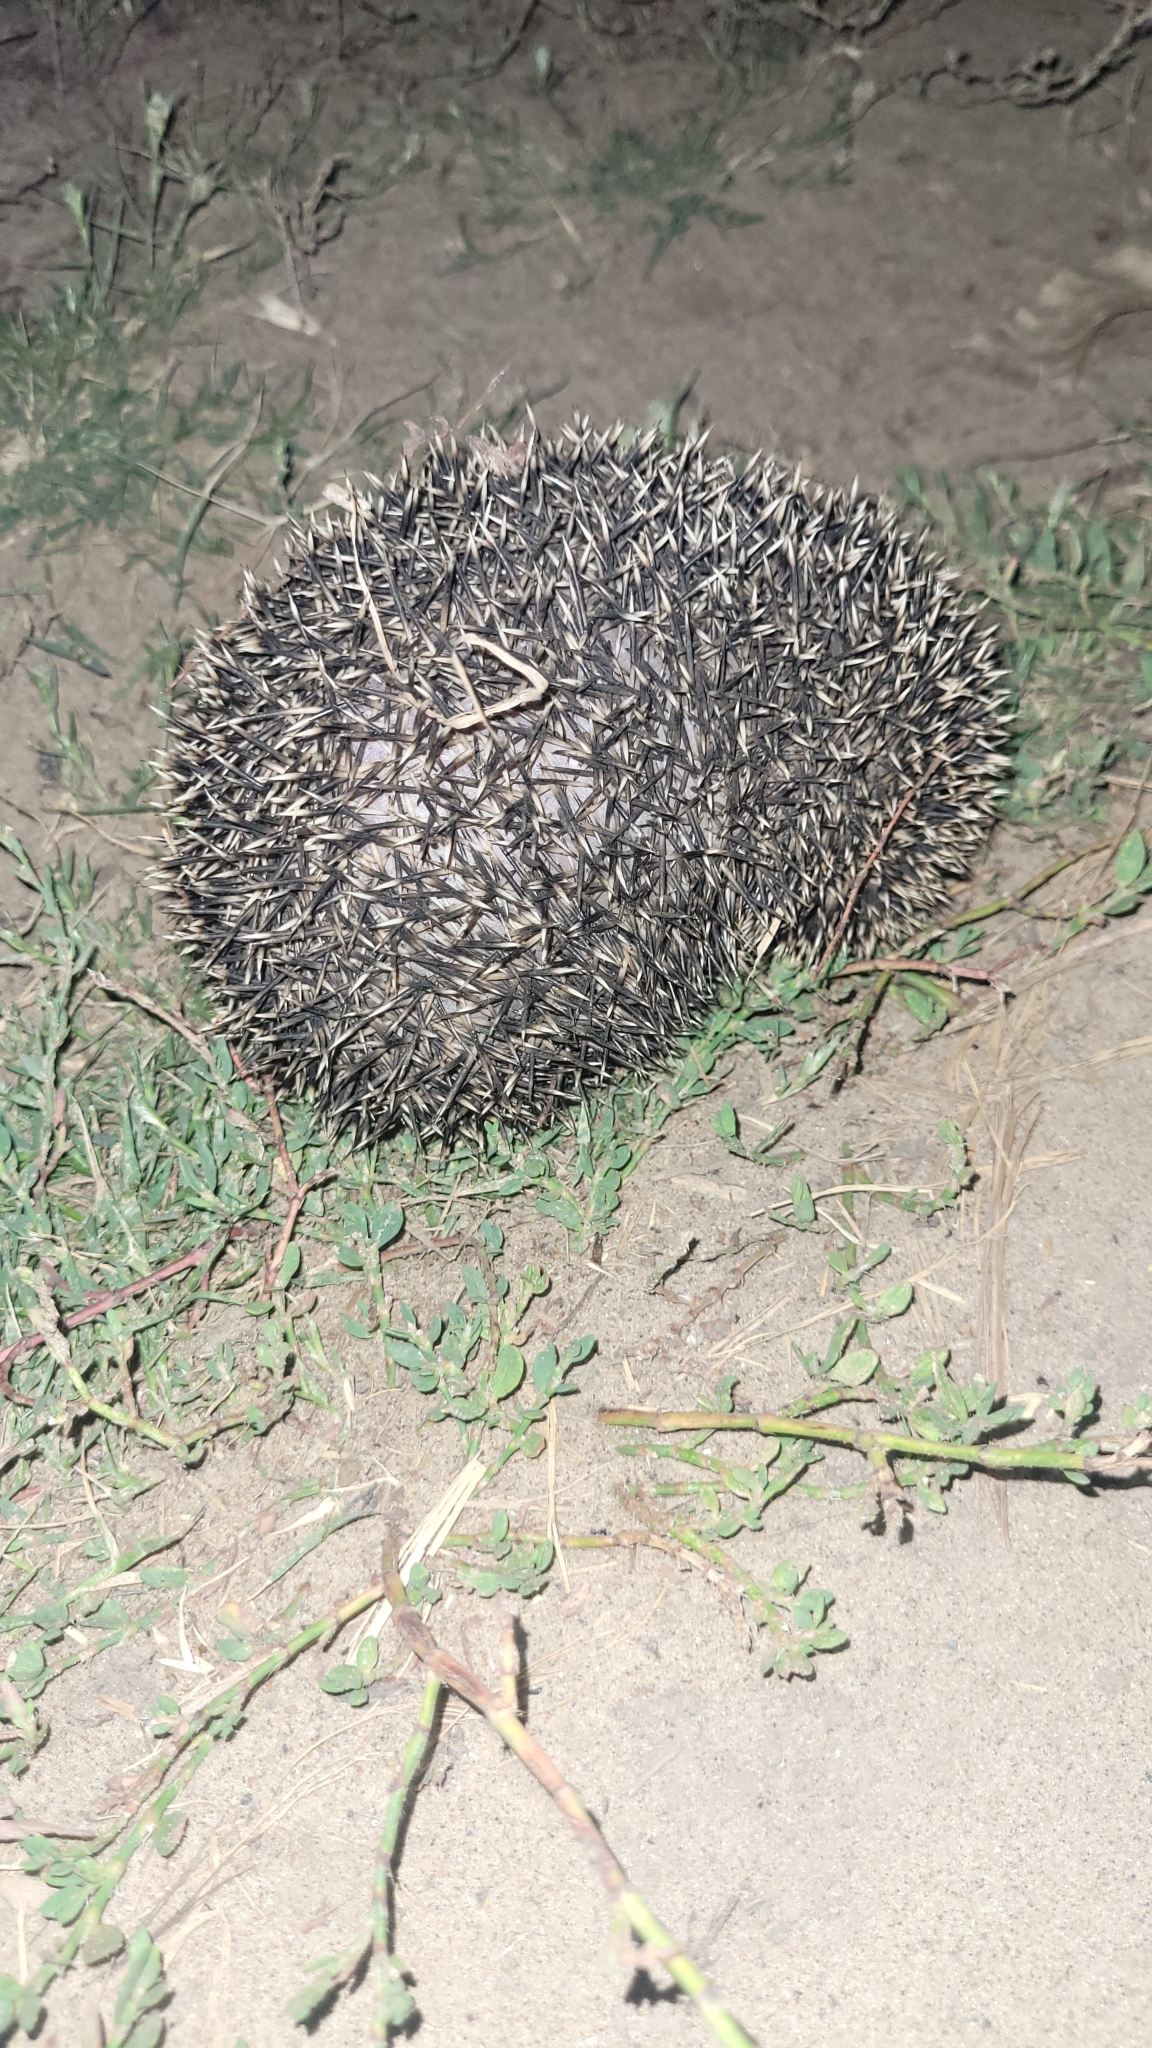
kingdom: Animalia
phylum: Chordata
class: Mammalia
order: Erinaceomorpha
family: Erinaceidae
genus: Hemiechinus
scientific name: Hemiechinus auritus
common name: Long-eared hedgehog
